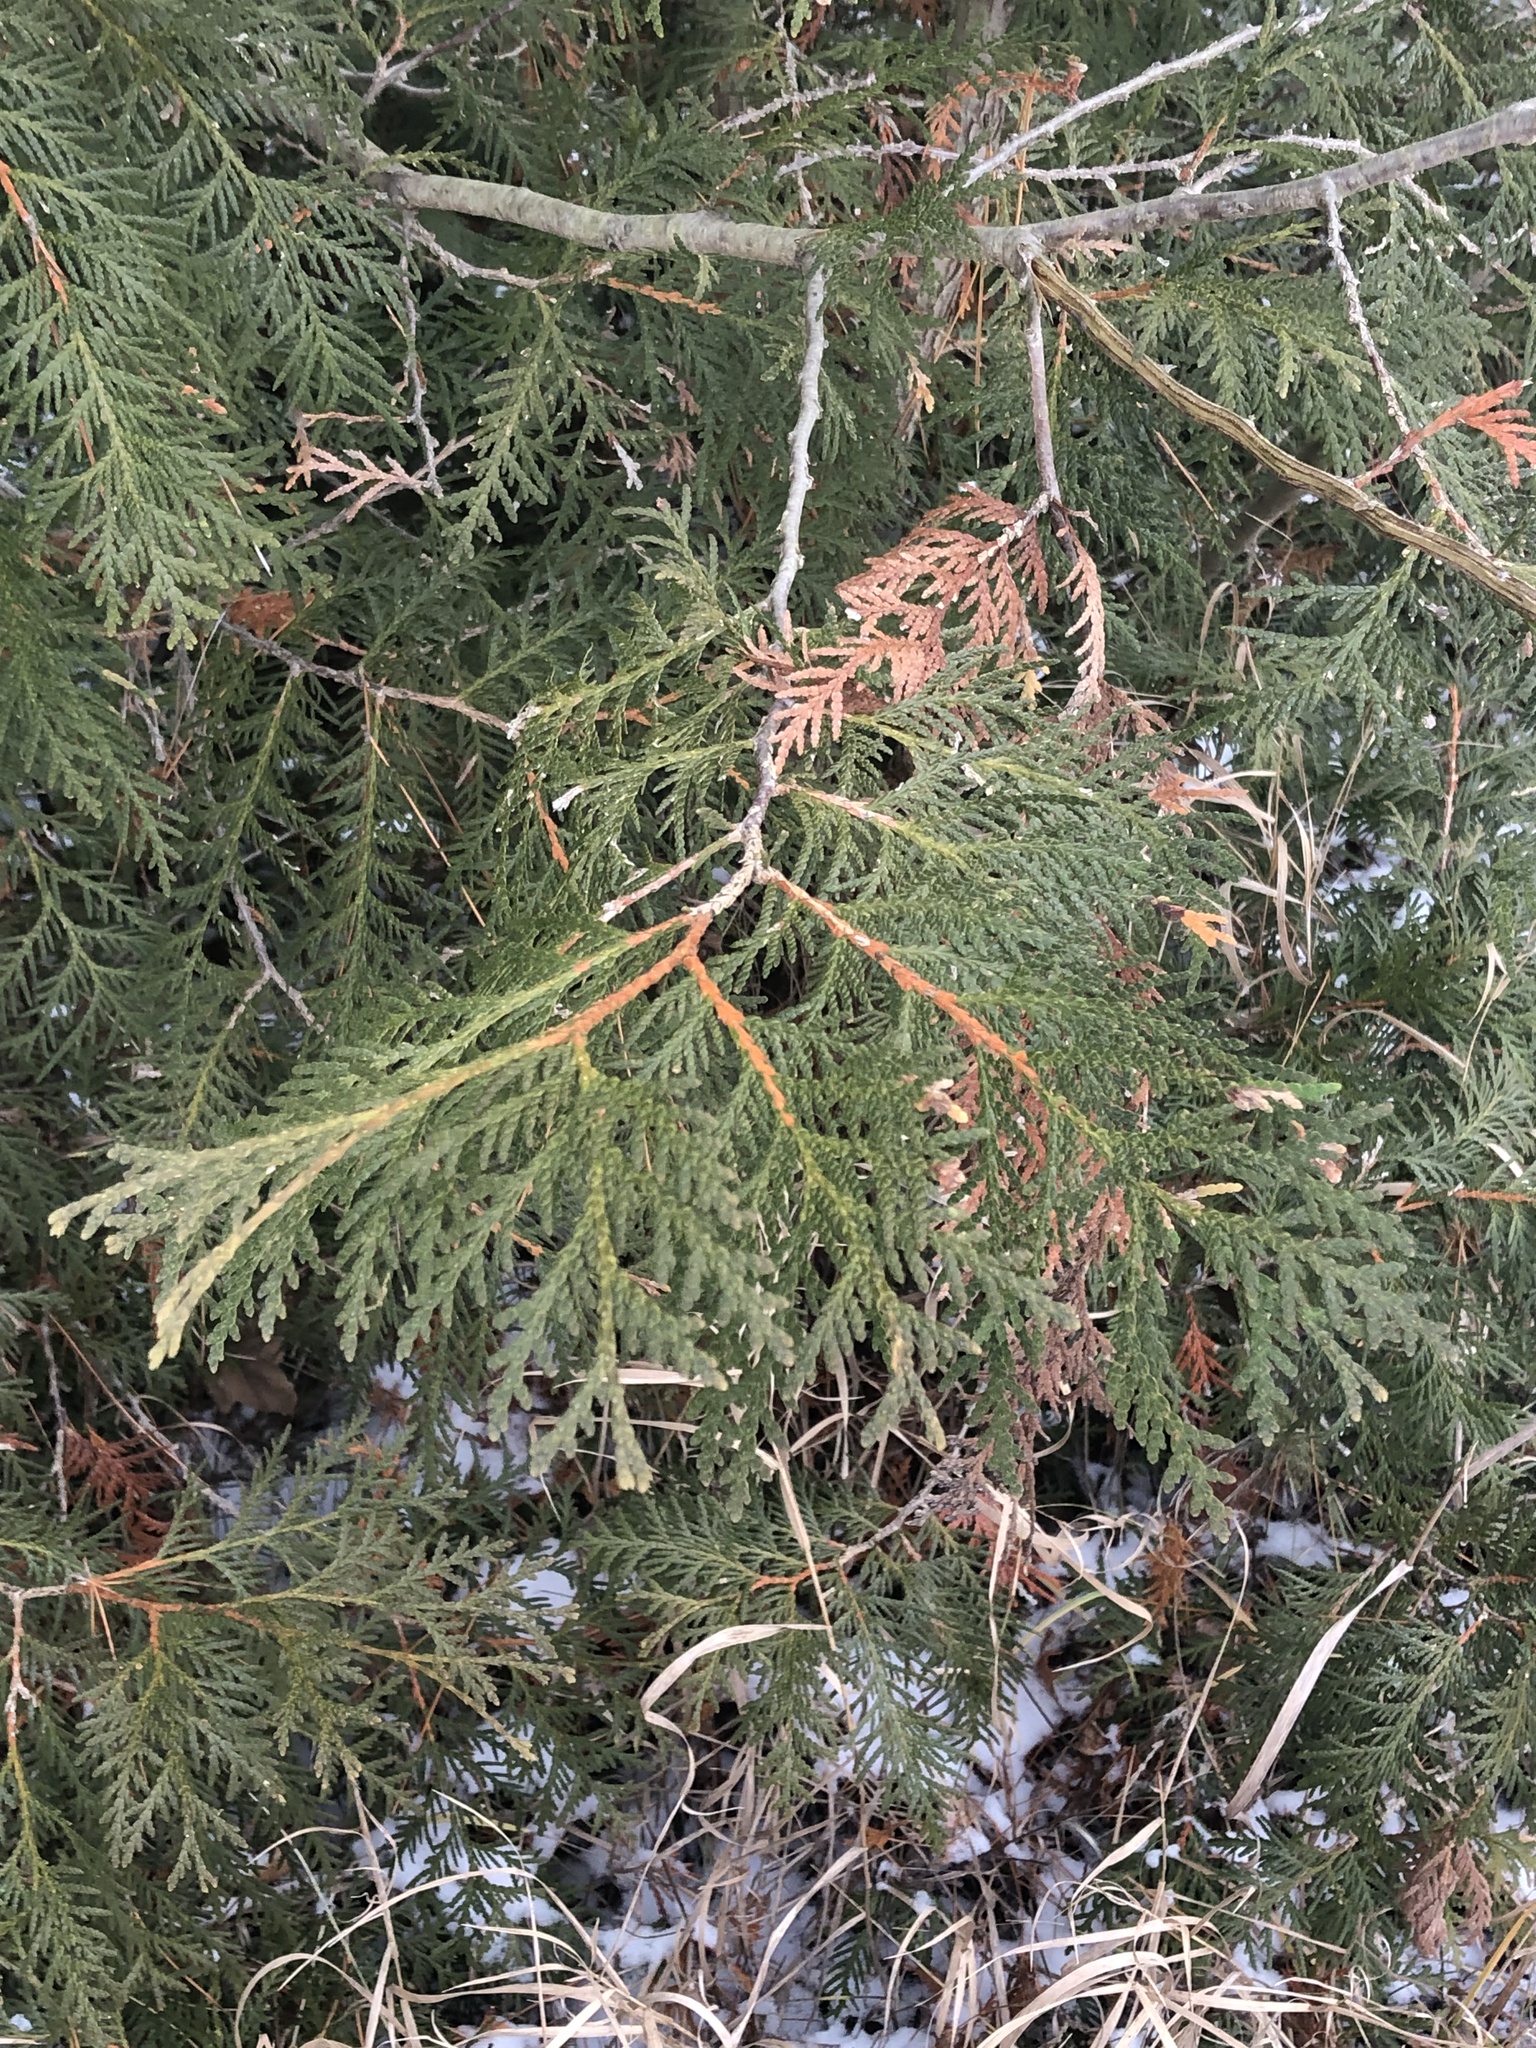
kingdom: Plantae
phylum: Tracheophyta
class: Pinopsida
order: Pinales
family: Cupressaceae
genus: Thuja
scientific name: Thuja occidentalis
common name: Northern white-cedar
